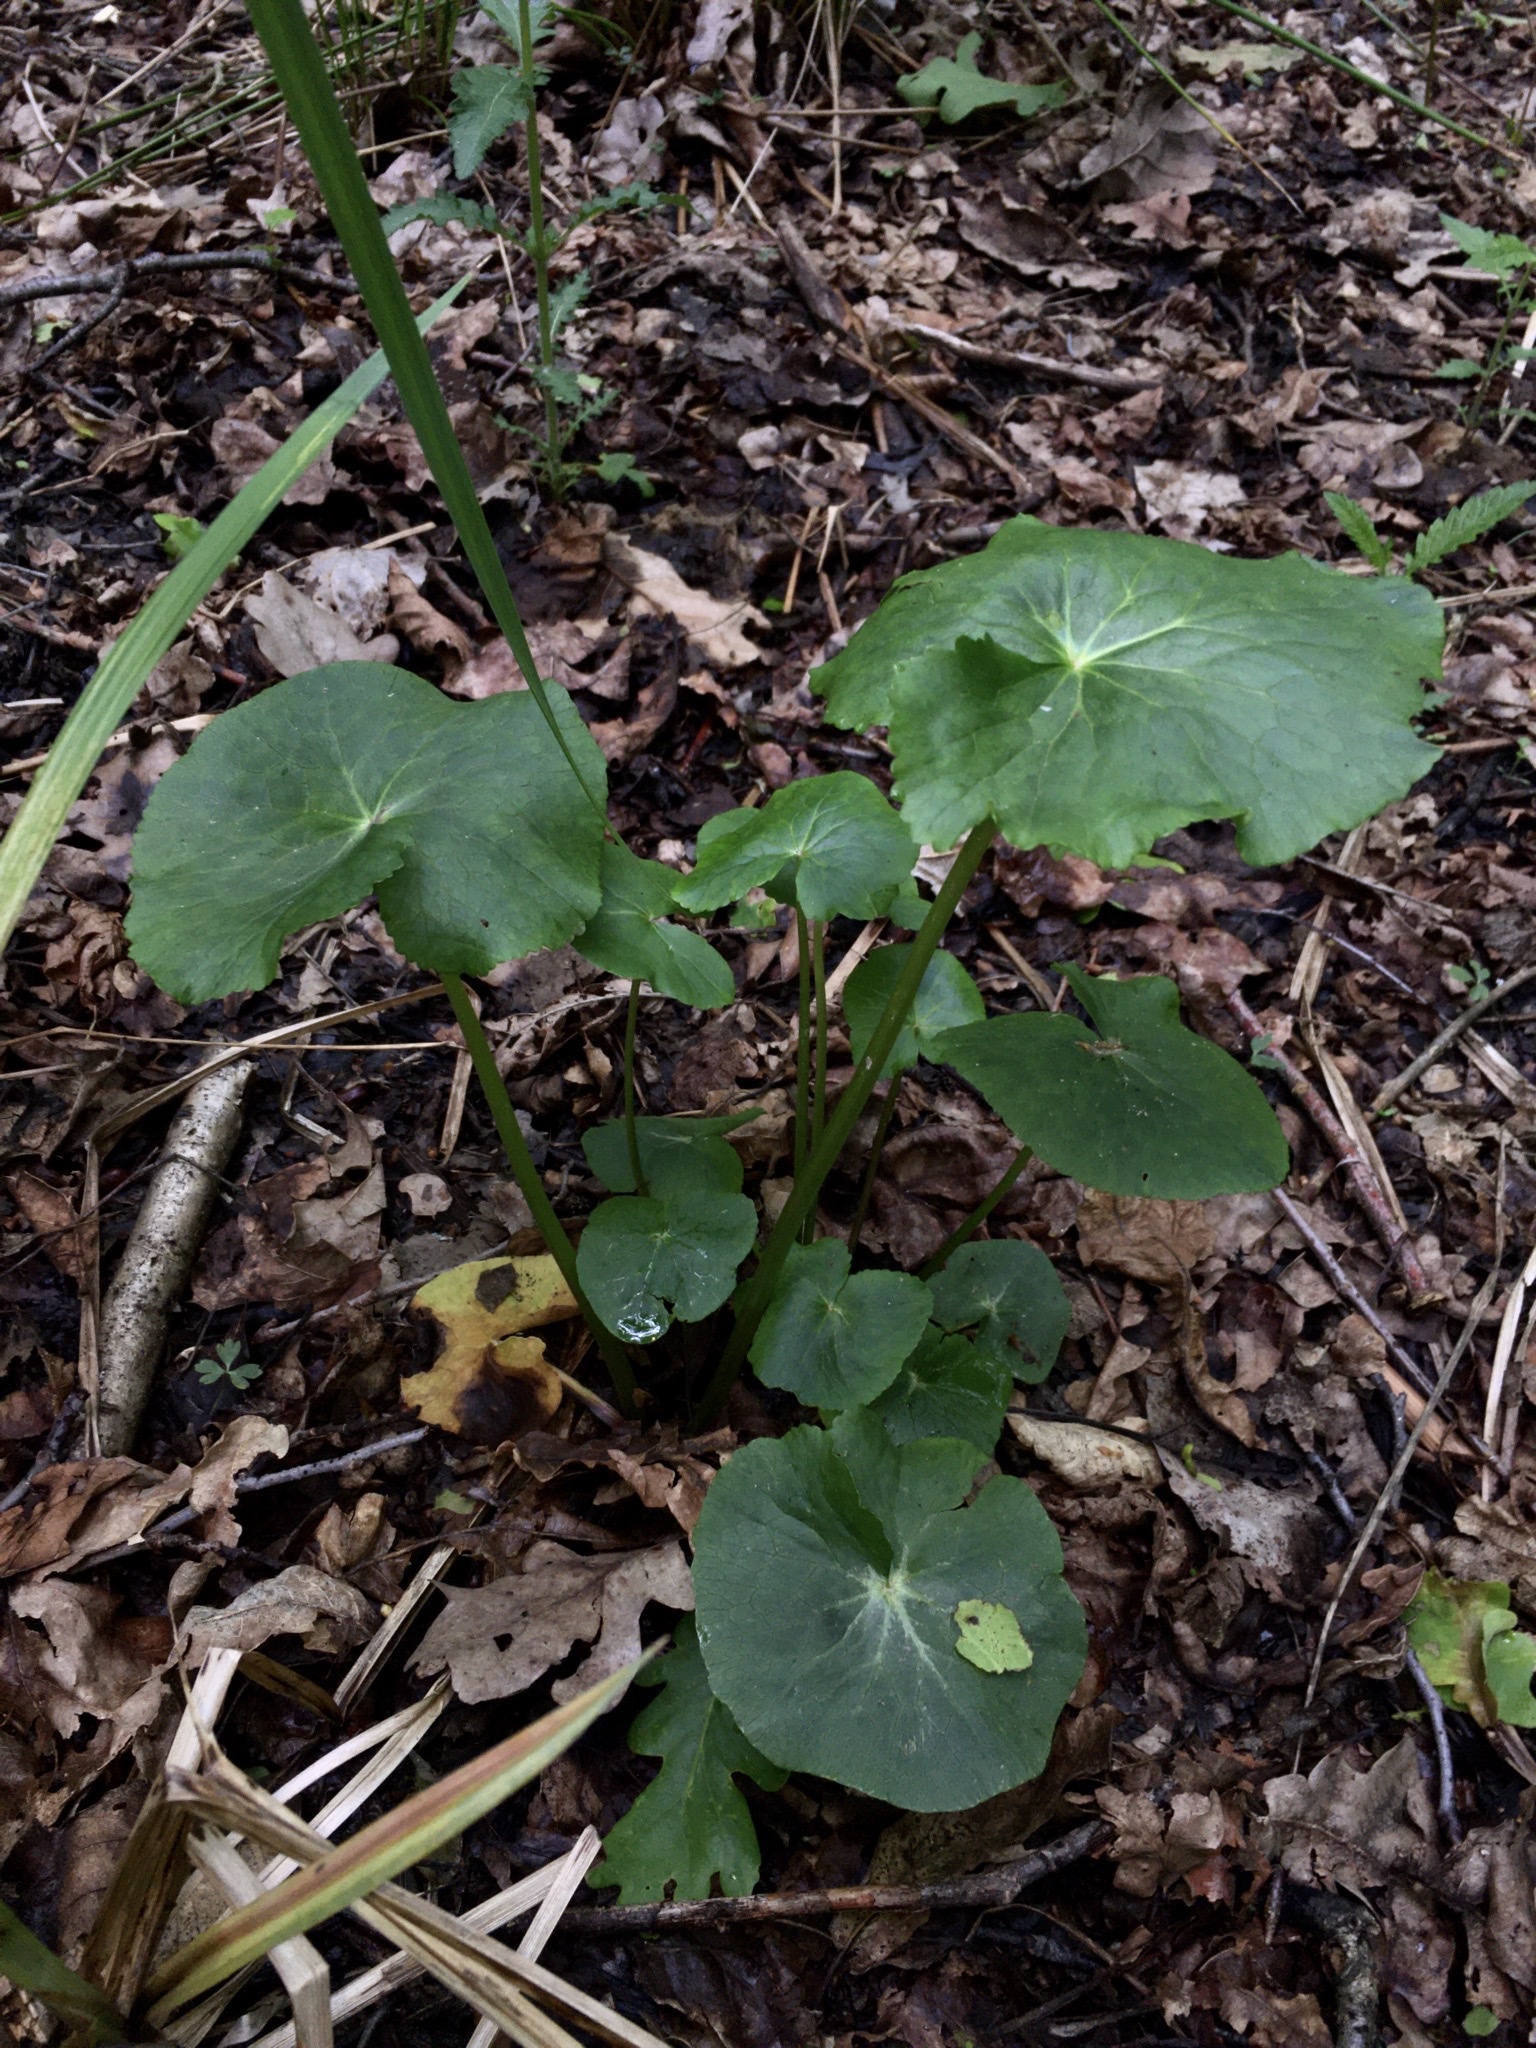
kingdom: Plantae
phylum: Tracheophyta
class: Magnoliopsida
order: Ranunculales
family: Ranunculaceae
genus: Caltha
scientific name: Caltha palustris
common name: Marsh marigold
